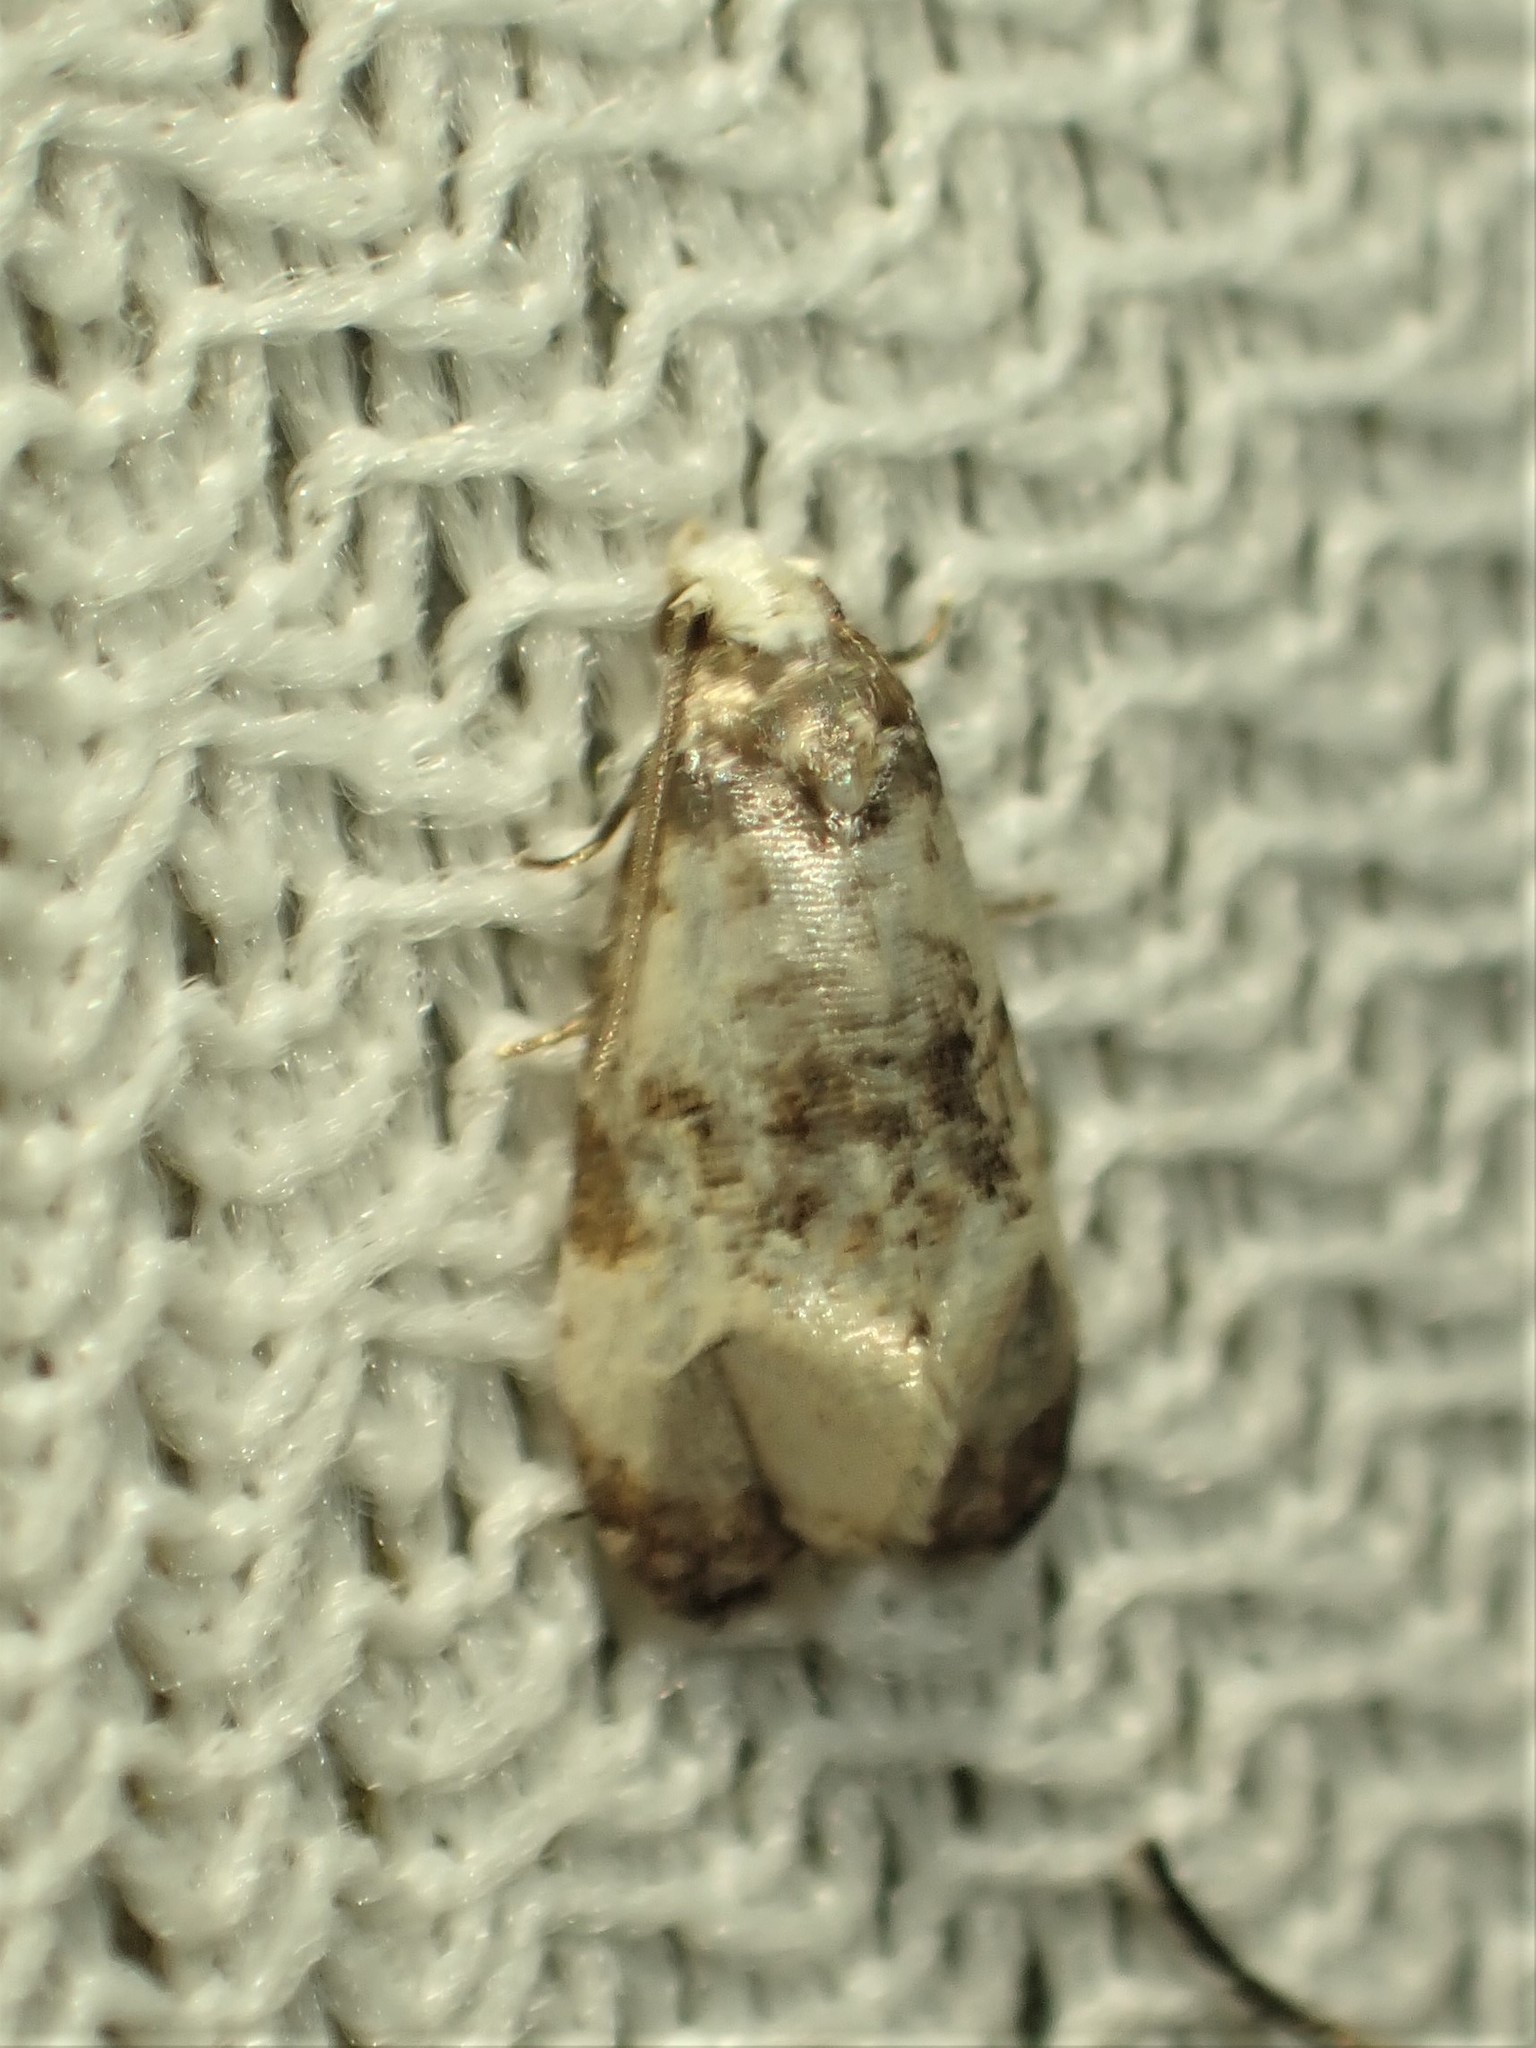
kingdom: Animalia
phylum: Arthropoda
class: Insecta
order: Lepidoptera
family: Tortricidae
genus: Phalonidia
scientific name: Phalonidia memoranda
